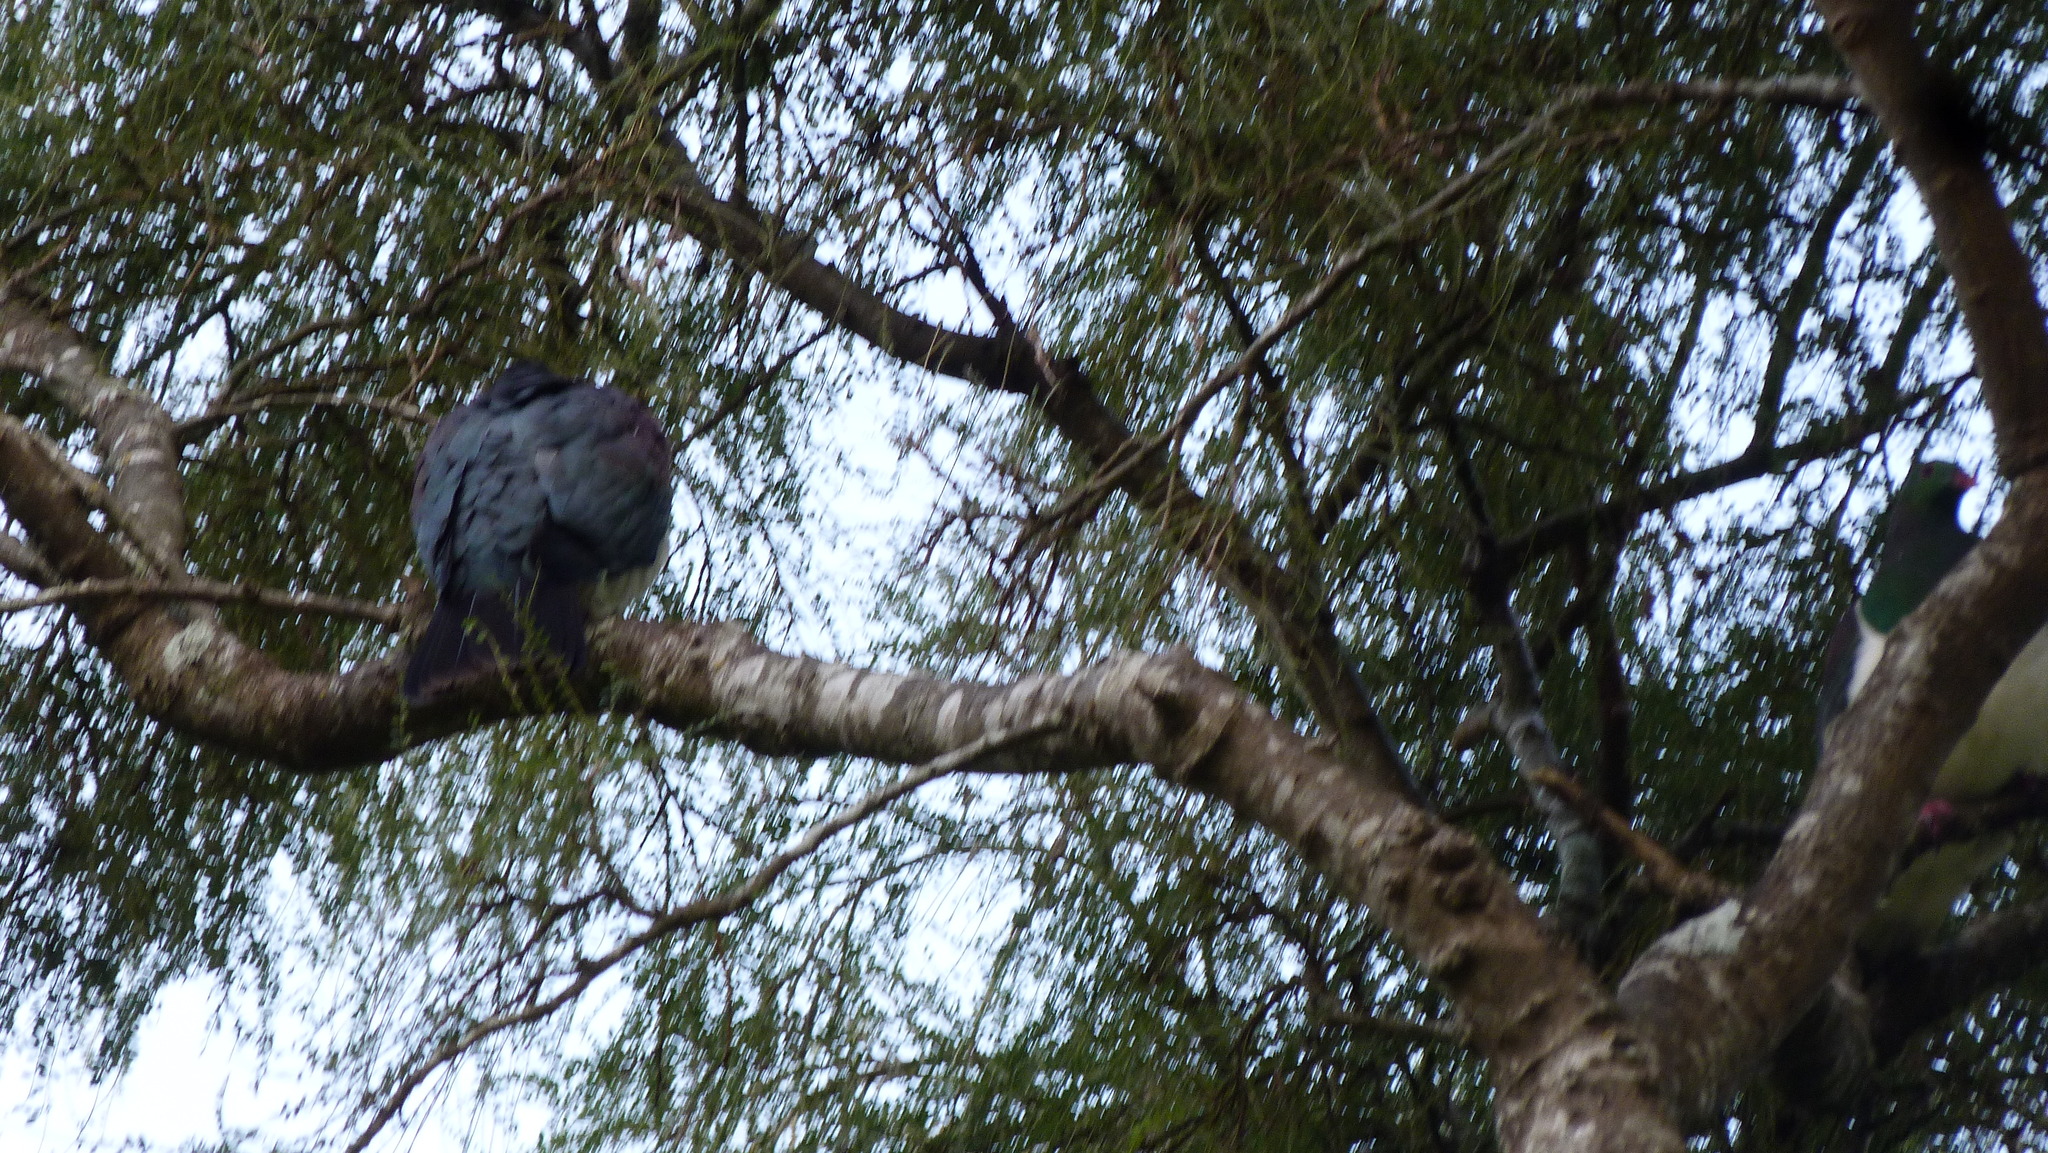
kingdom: Animalia
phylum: Chordata
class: Aves
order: Columbiformes
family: Columbidae
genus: Hemiphaga
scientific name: Hemiphaga novaeseelandiae
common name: New zealand pigeon
